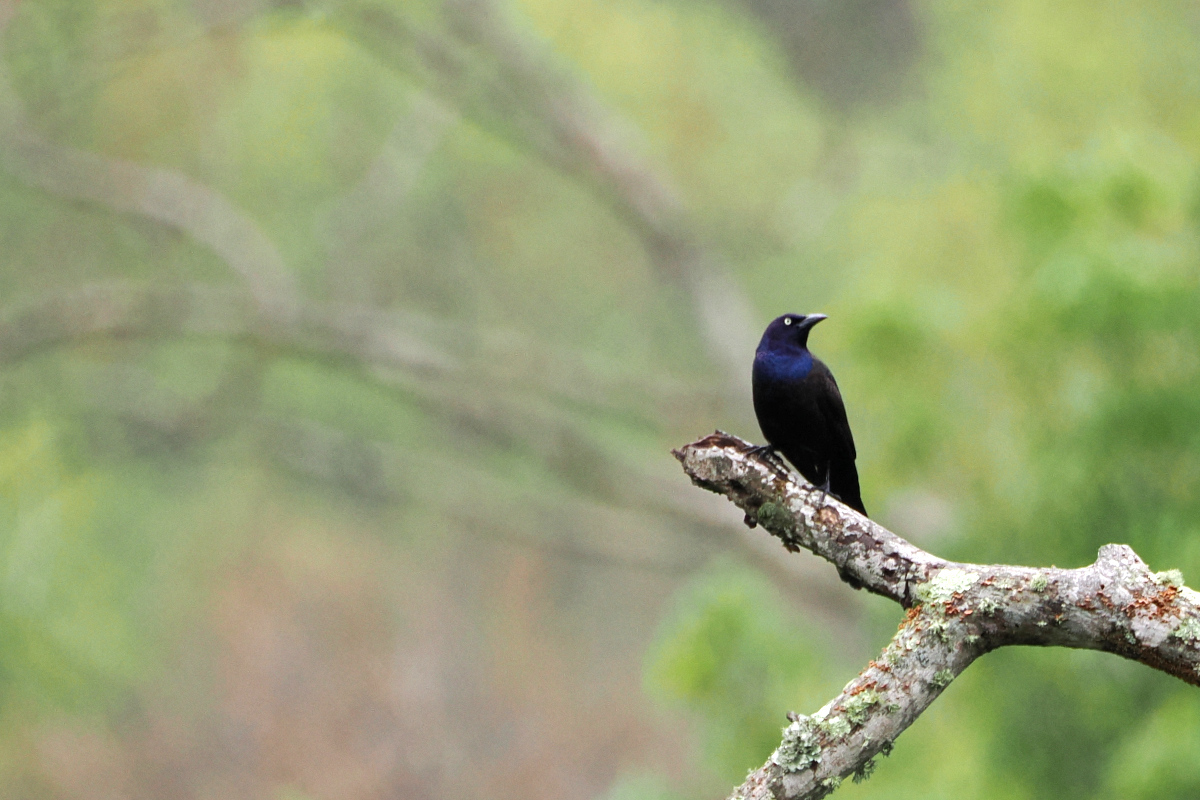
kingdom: Animalia
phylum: Chordata
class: Aves
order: Passeriformes
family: Icteridae
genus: Quiscalus
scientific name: Quiscalus quiscula
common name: Common grackle
